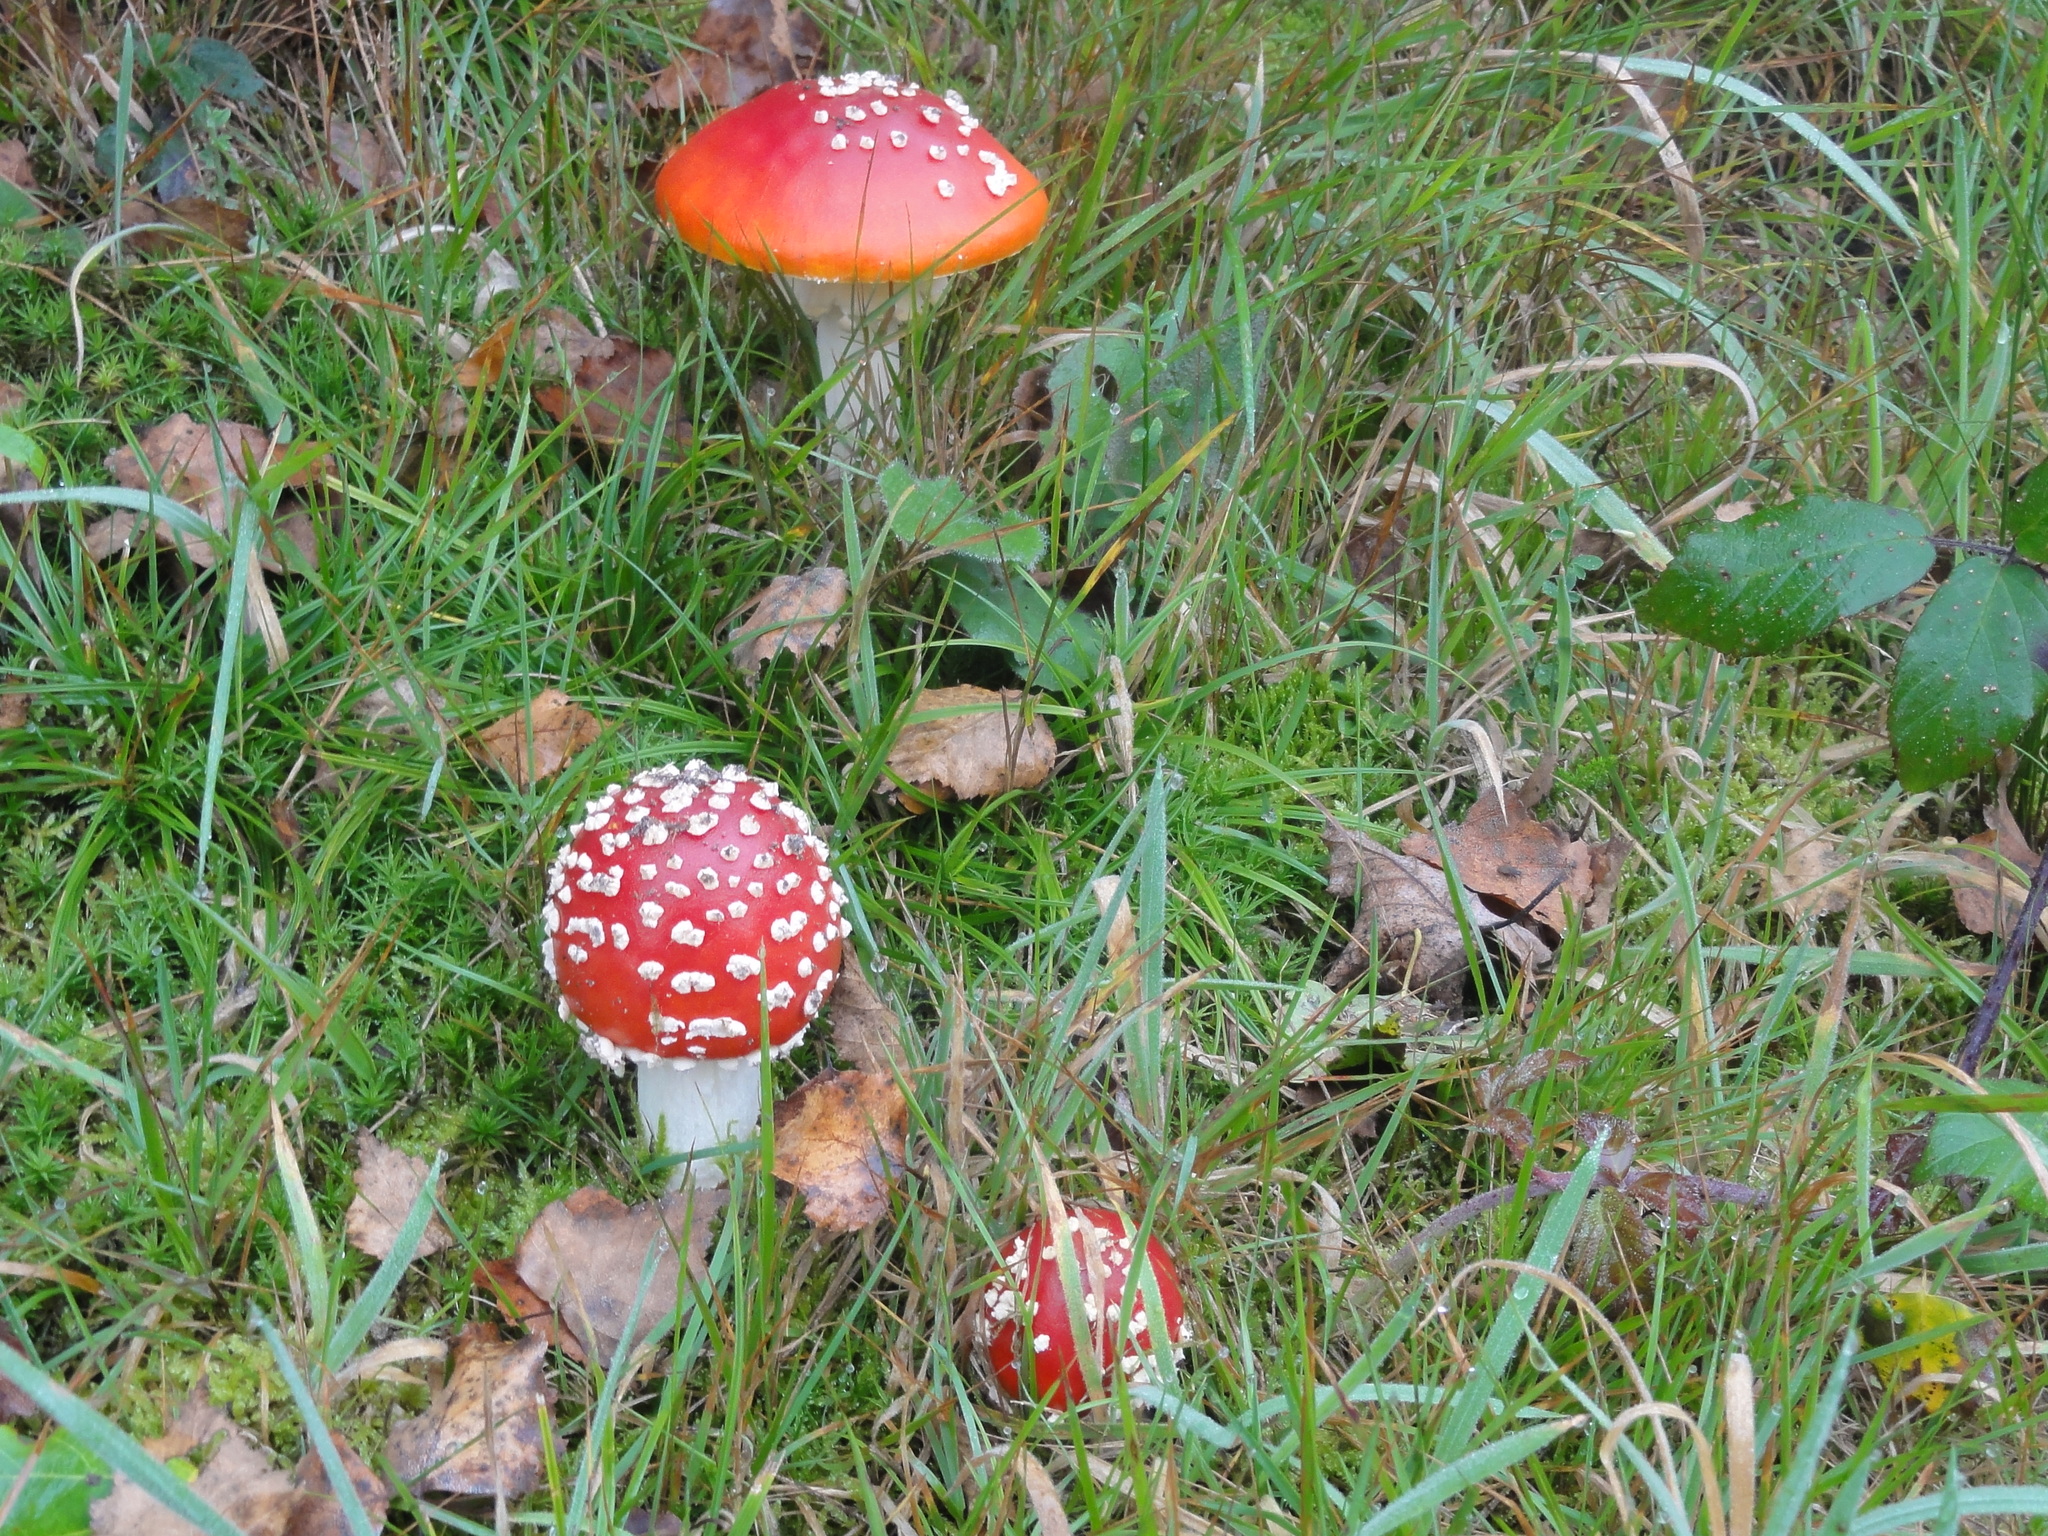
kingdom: Fungi
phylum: Basidiomycota
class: Agaricomycetes
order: Agaricales
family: Amanitaceae
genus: Amanita
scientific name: Amanita muscaria
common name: Fly agaric
